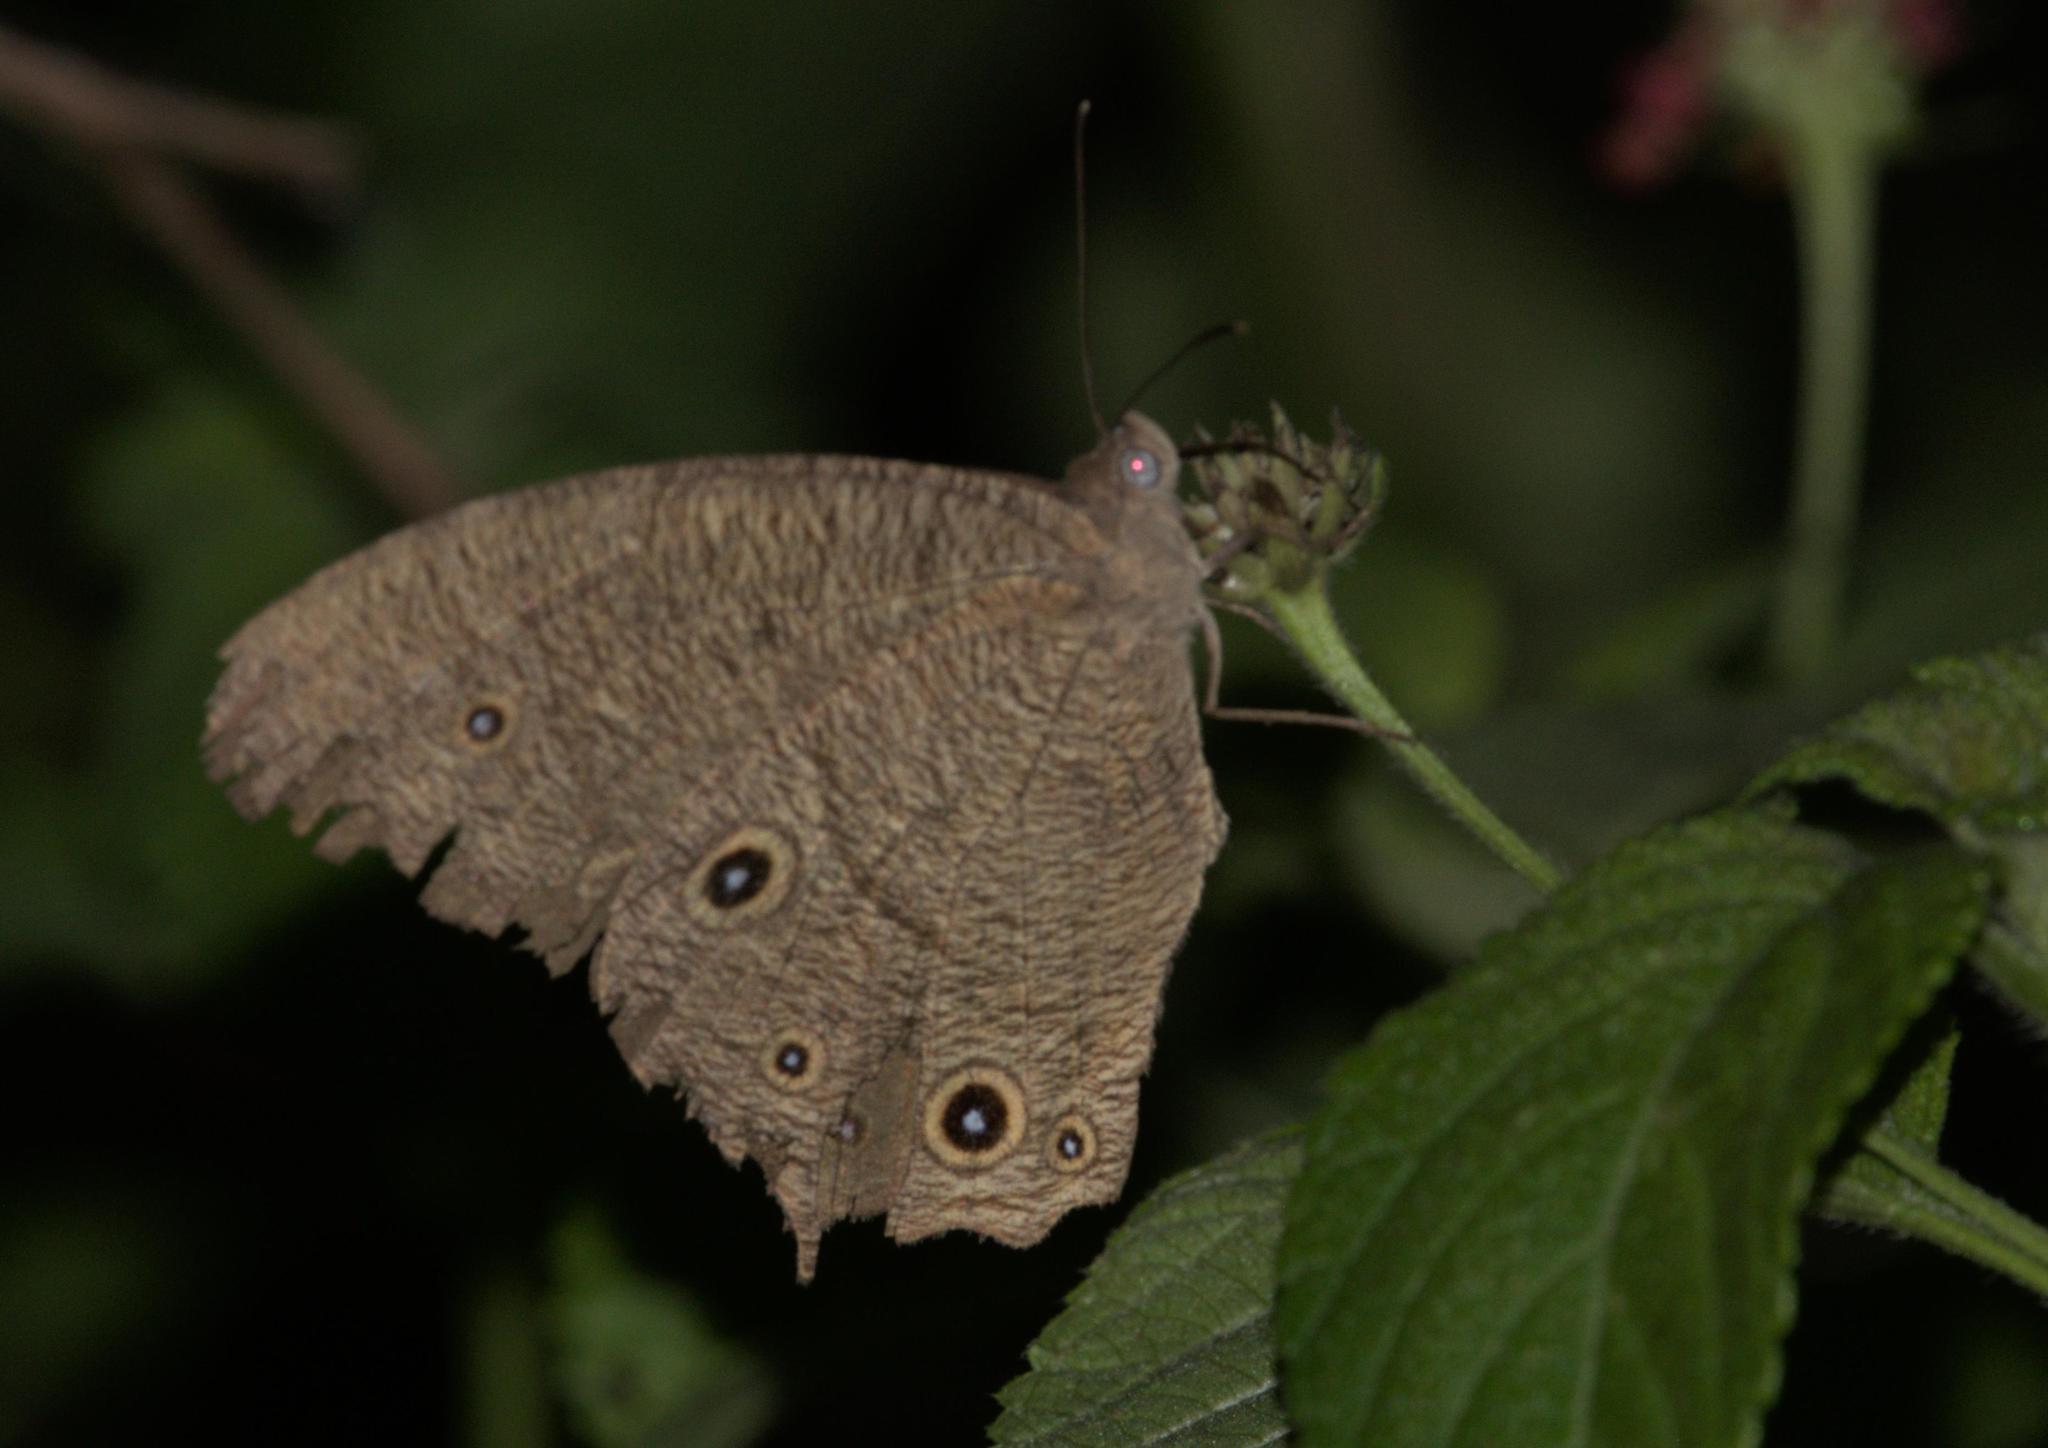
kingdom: Animalia
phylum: Arthropoda
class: Insecta
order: Lepidoptera
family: Nymphalidae
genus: Melanitis
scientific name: Melanitis leda
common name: Twilight brown
